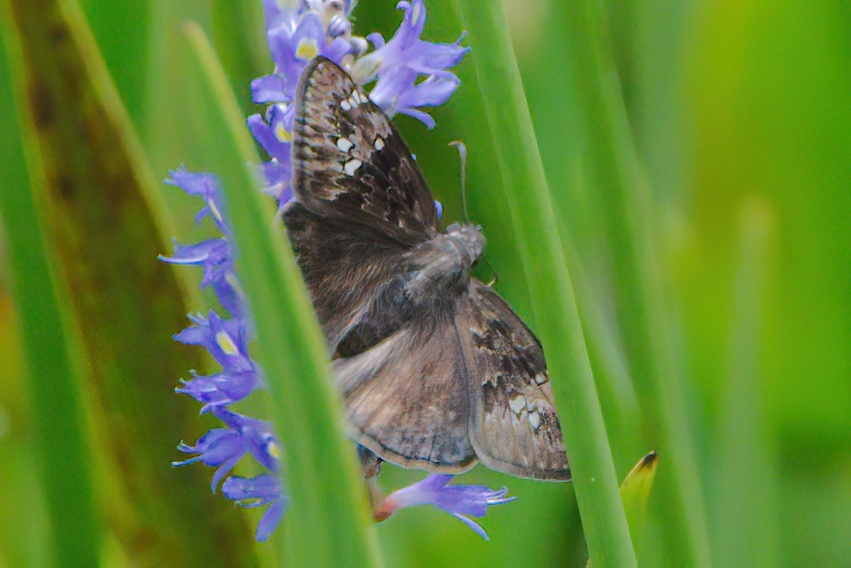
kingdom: Animalia
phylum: Arthropoda
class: Insecta
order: Lepidoptera
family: Hesperiidae
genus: Erynnis
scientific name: Erynnis horatius
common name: Horace's duskywing
